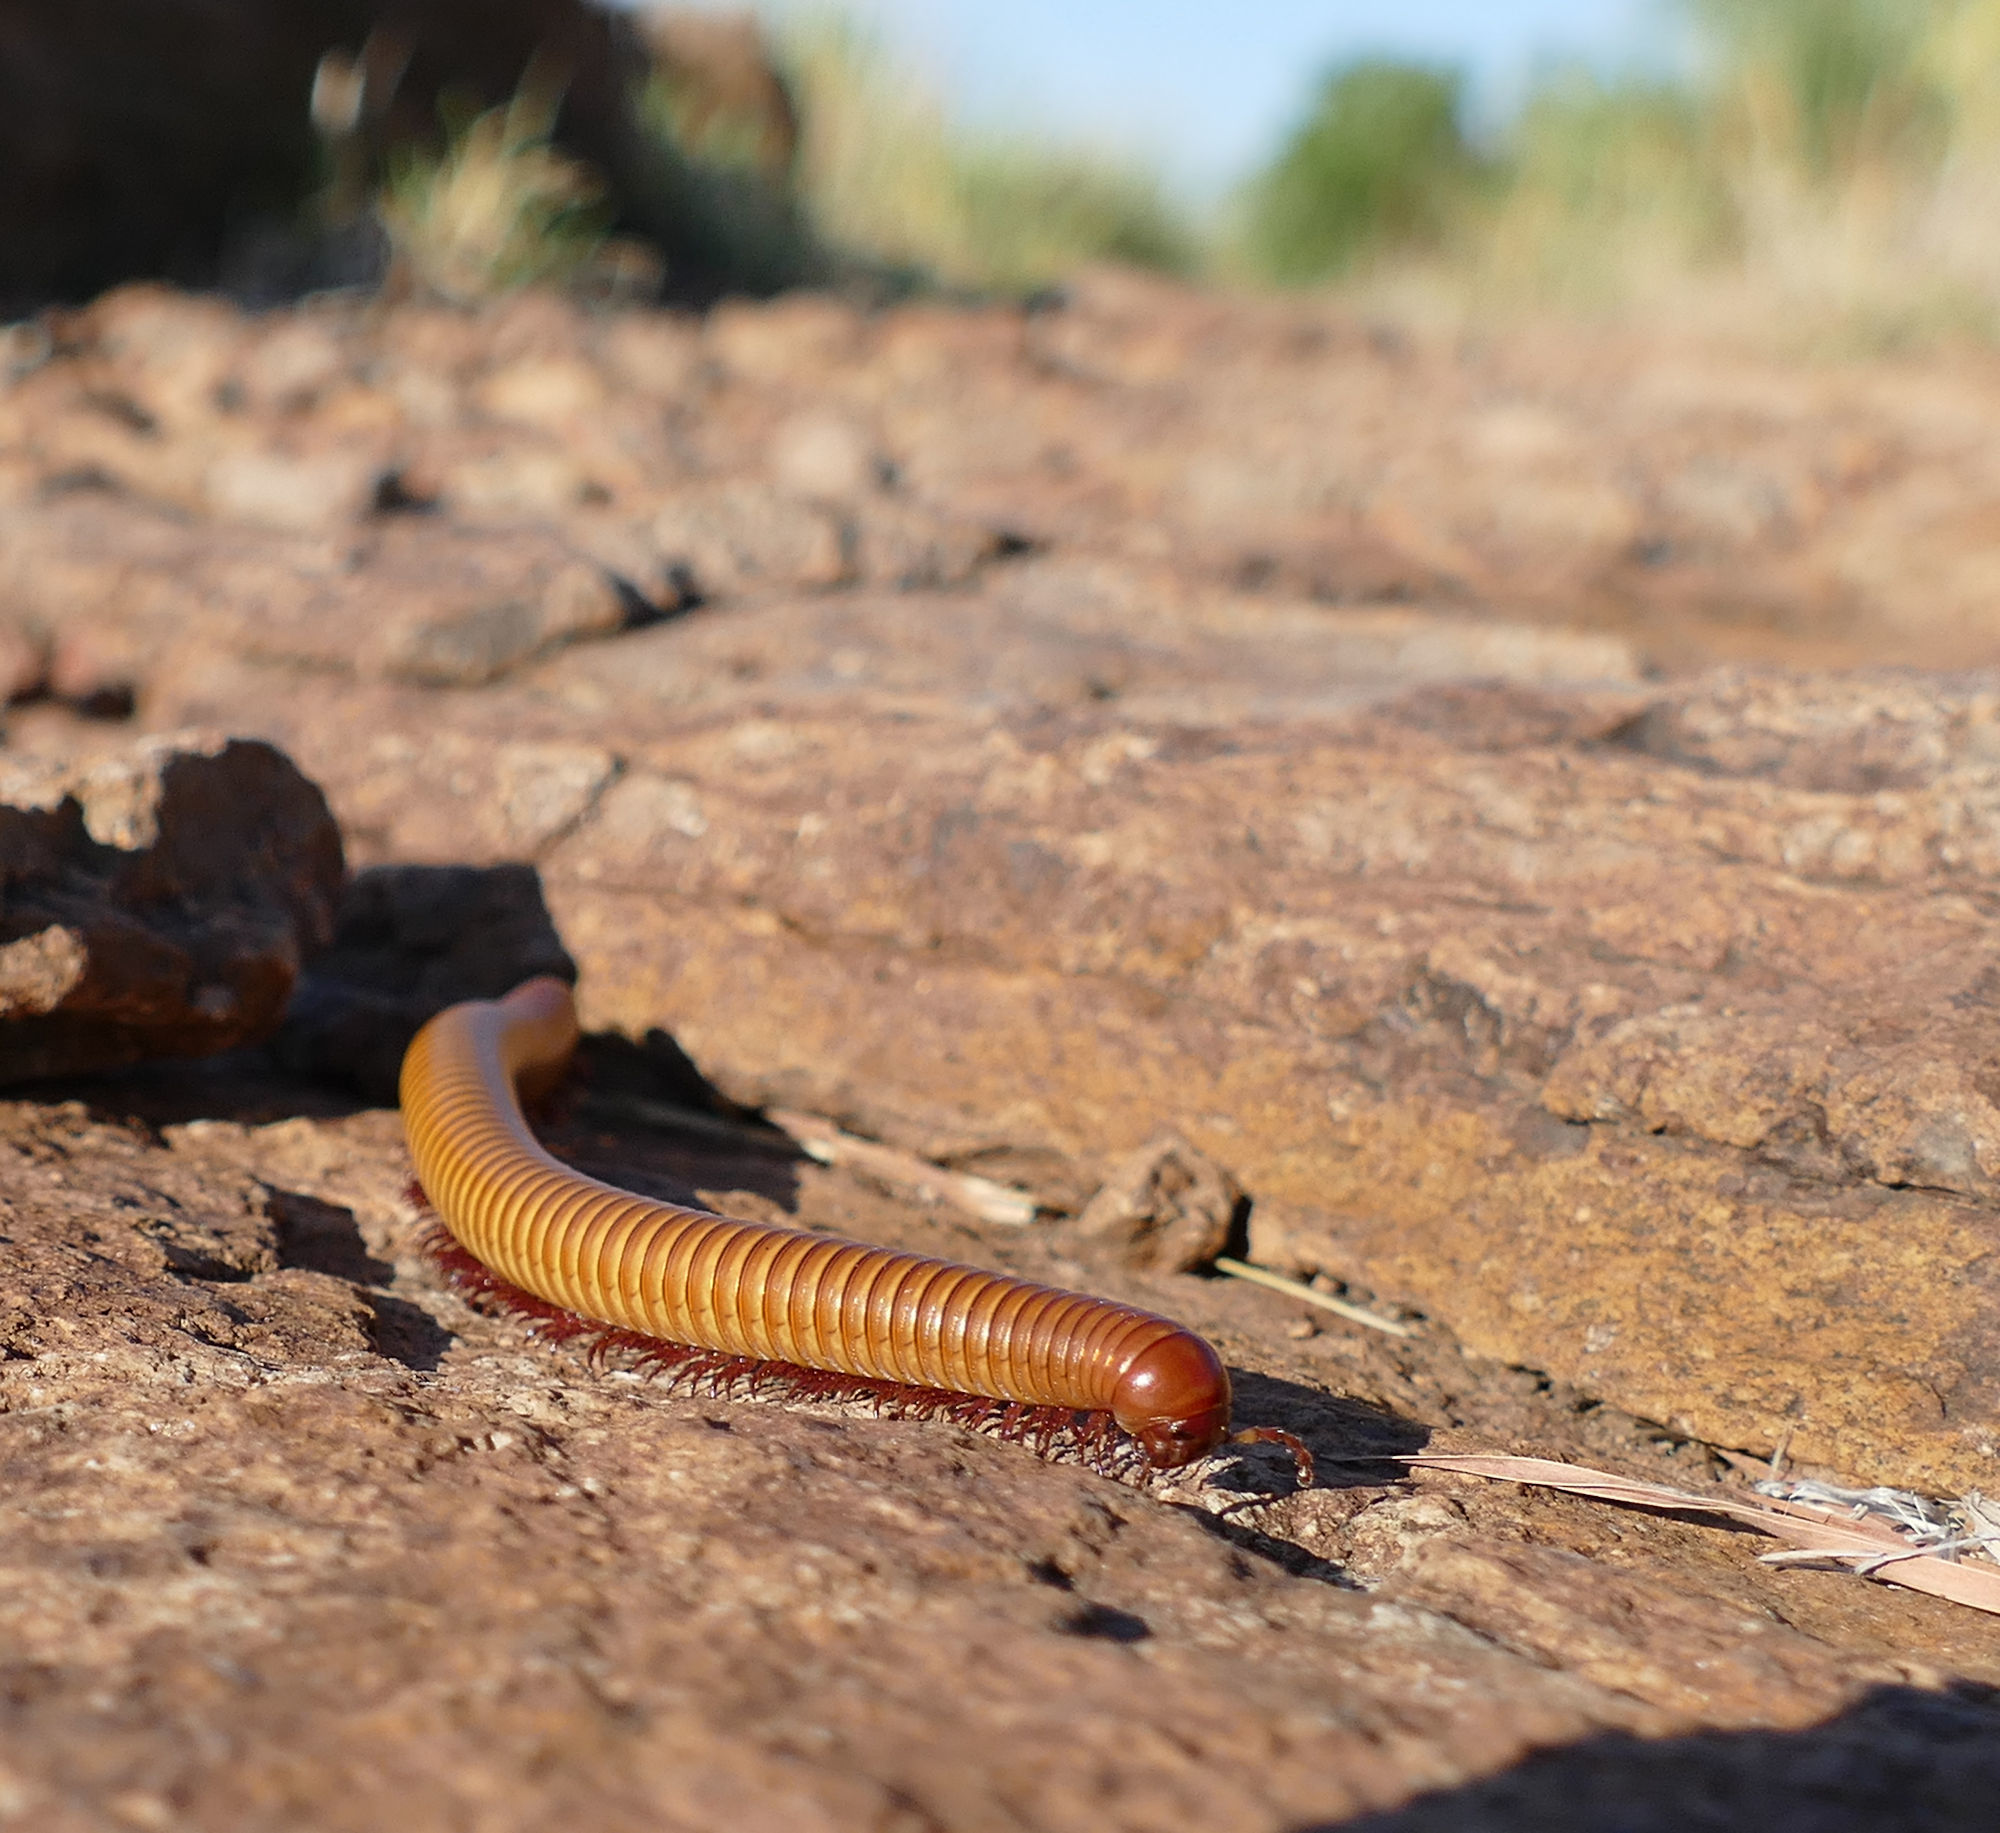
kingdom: Animalia
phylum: Arthropoda
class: Diplopoda
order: Spirostreptida
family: Spirostreptidae
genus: Orthoporus
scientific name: Orthoporus ornatus
